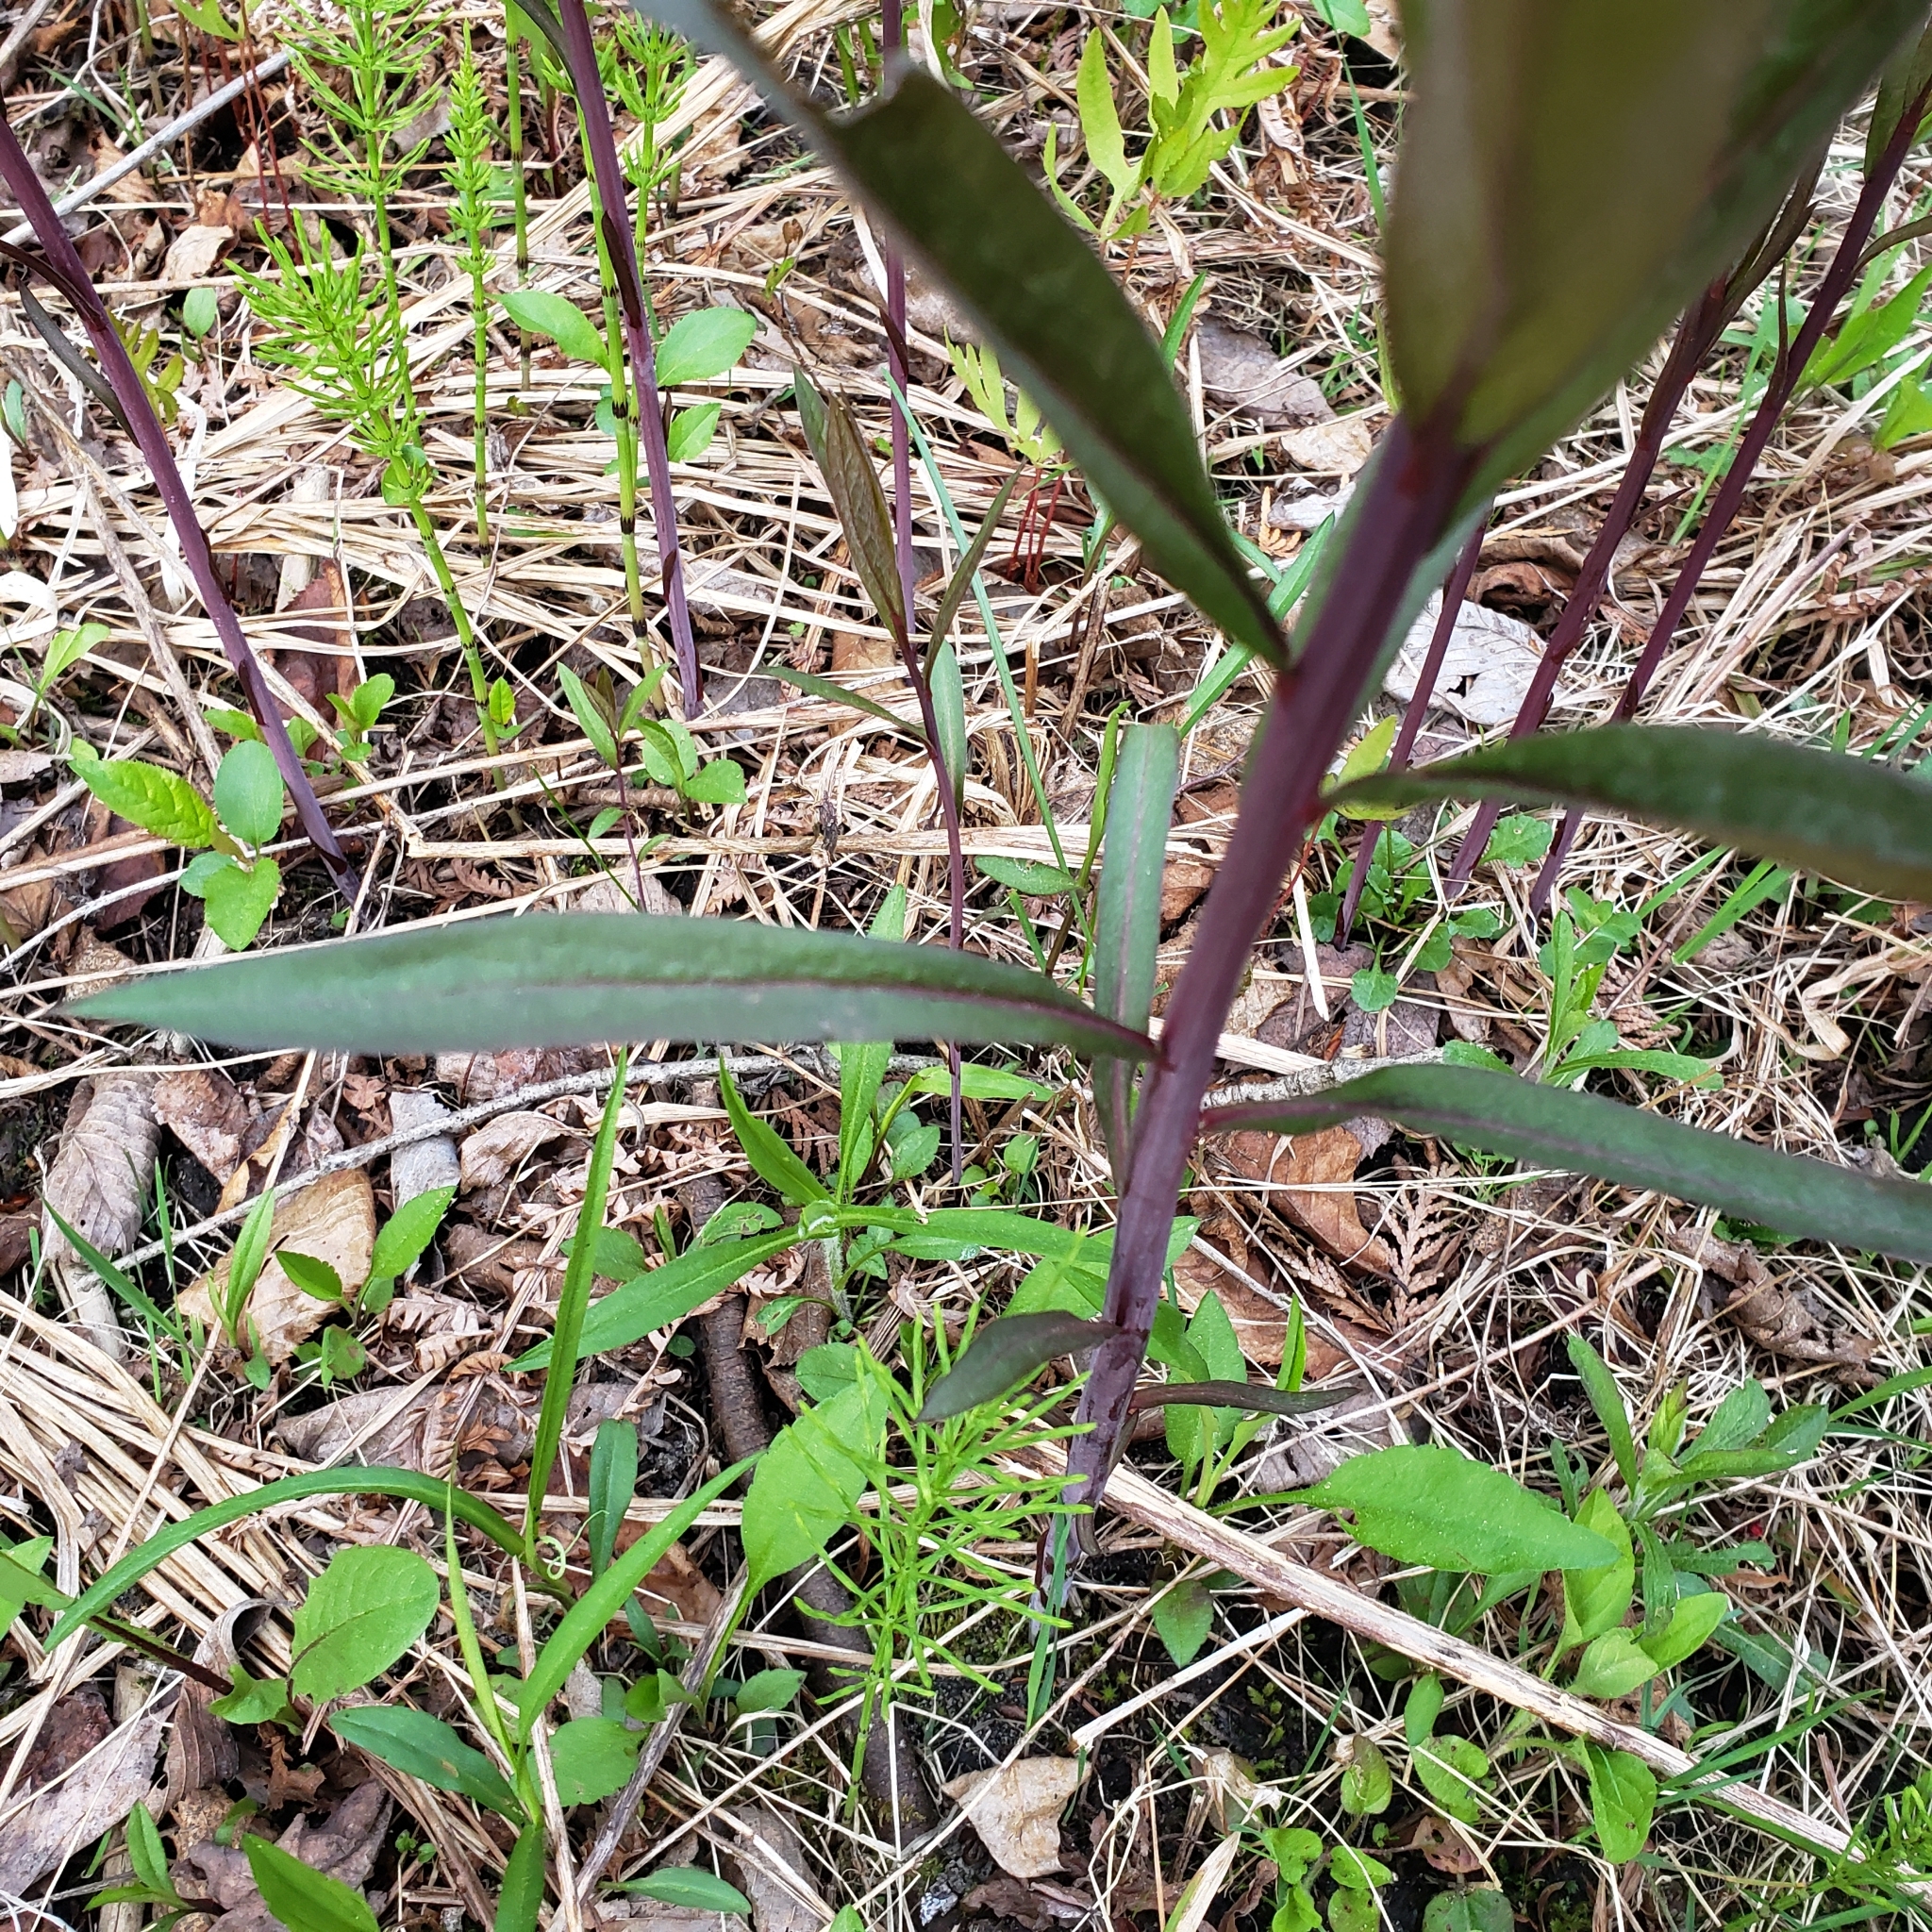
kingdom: Plantae
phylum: Tracheophyta
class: Magnoliopsida
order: Myrtales
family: Onagraceae
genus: Chamaenerion
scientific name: Chamaenerion angustifolium
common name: Fireweed
